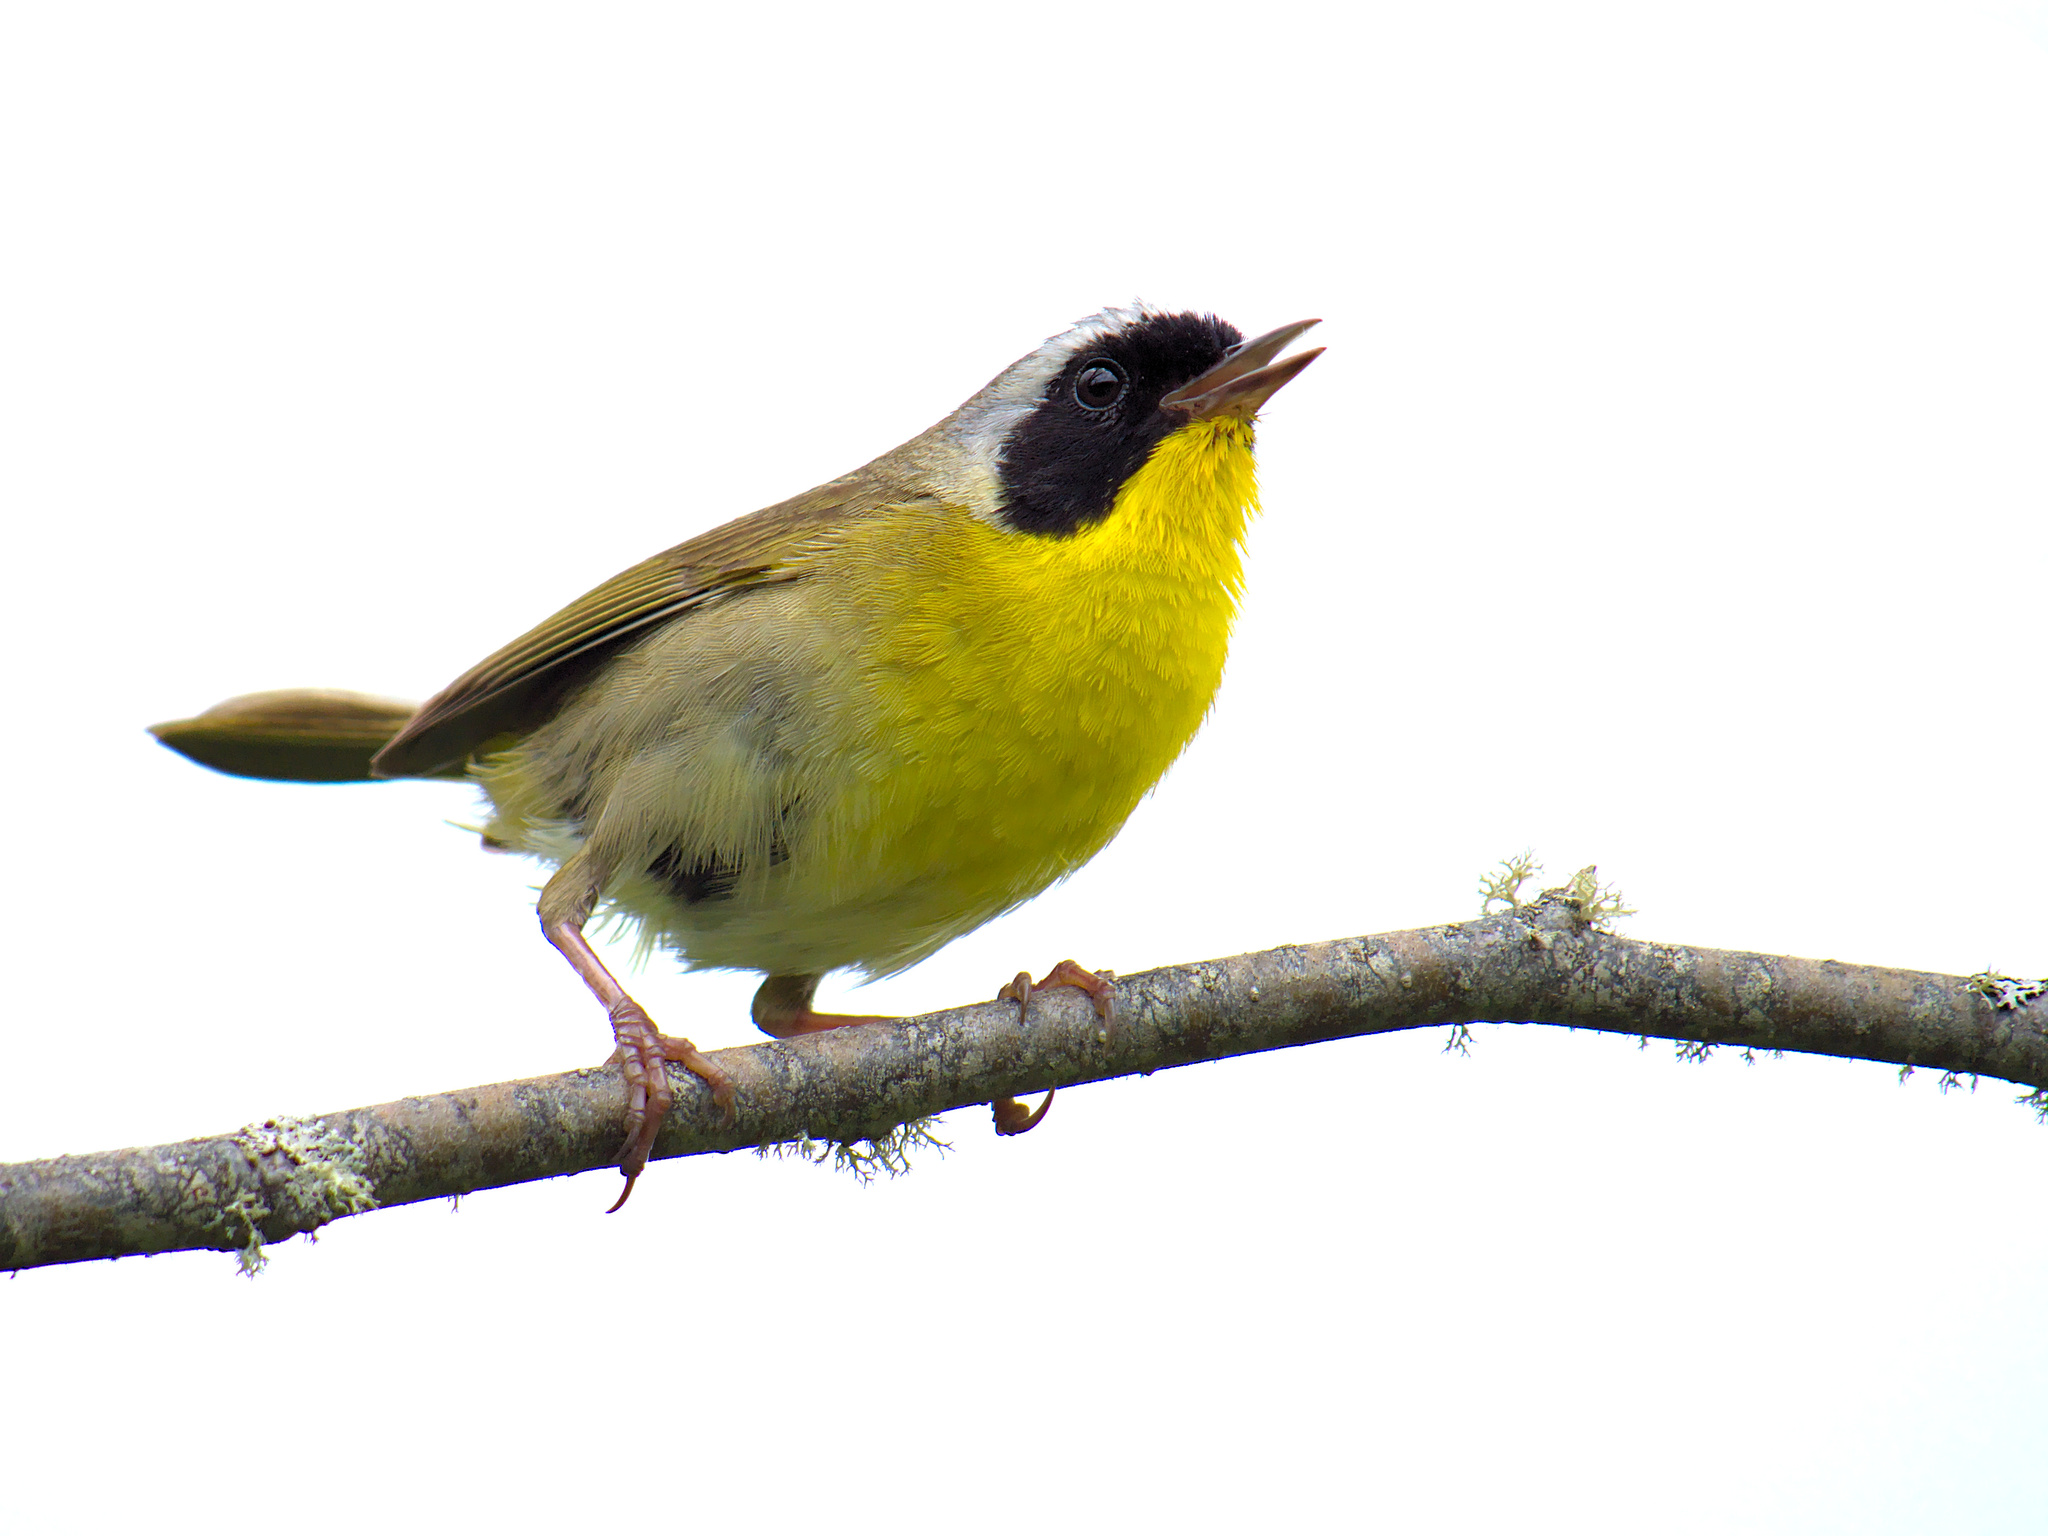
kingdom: Animalia
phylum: Chordata
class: Aves
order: Passeriformes
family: Parulidae
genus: Geothlypis
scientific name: Geothlypis trichas
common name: Common yellowthroat
